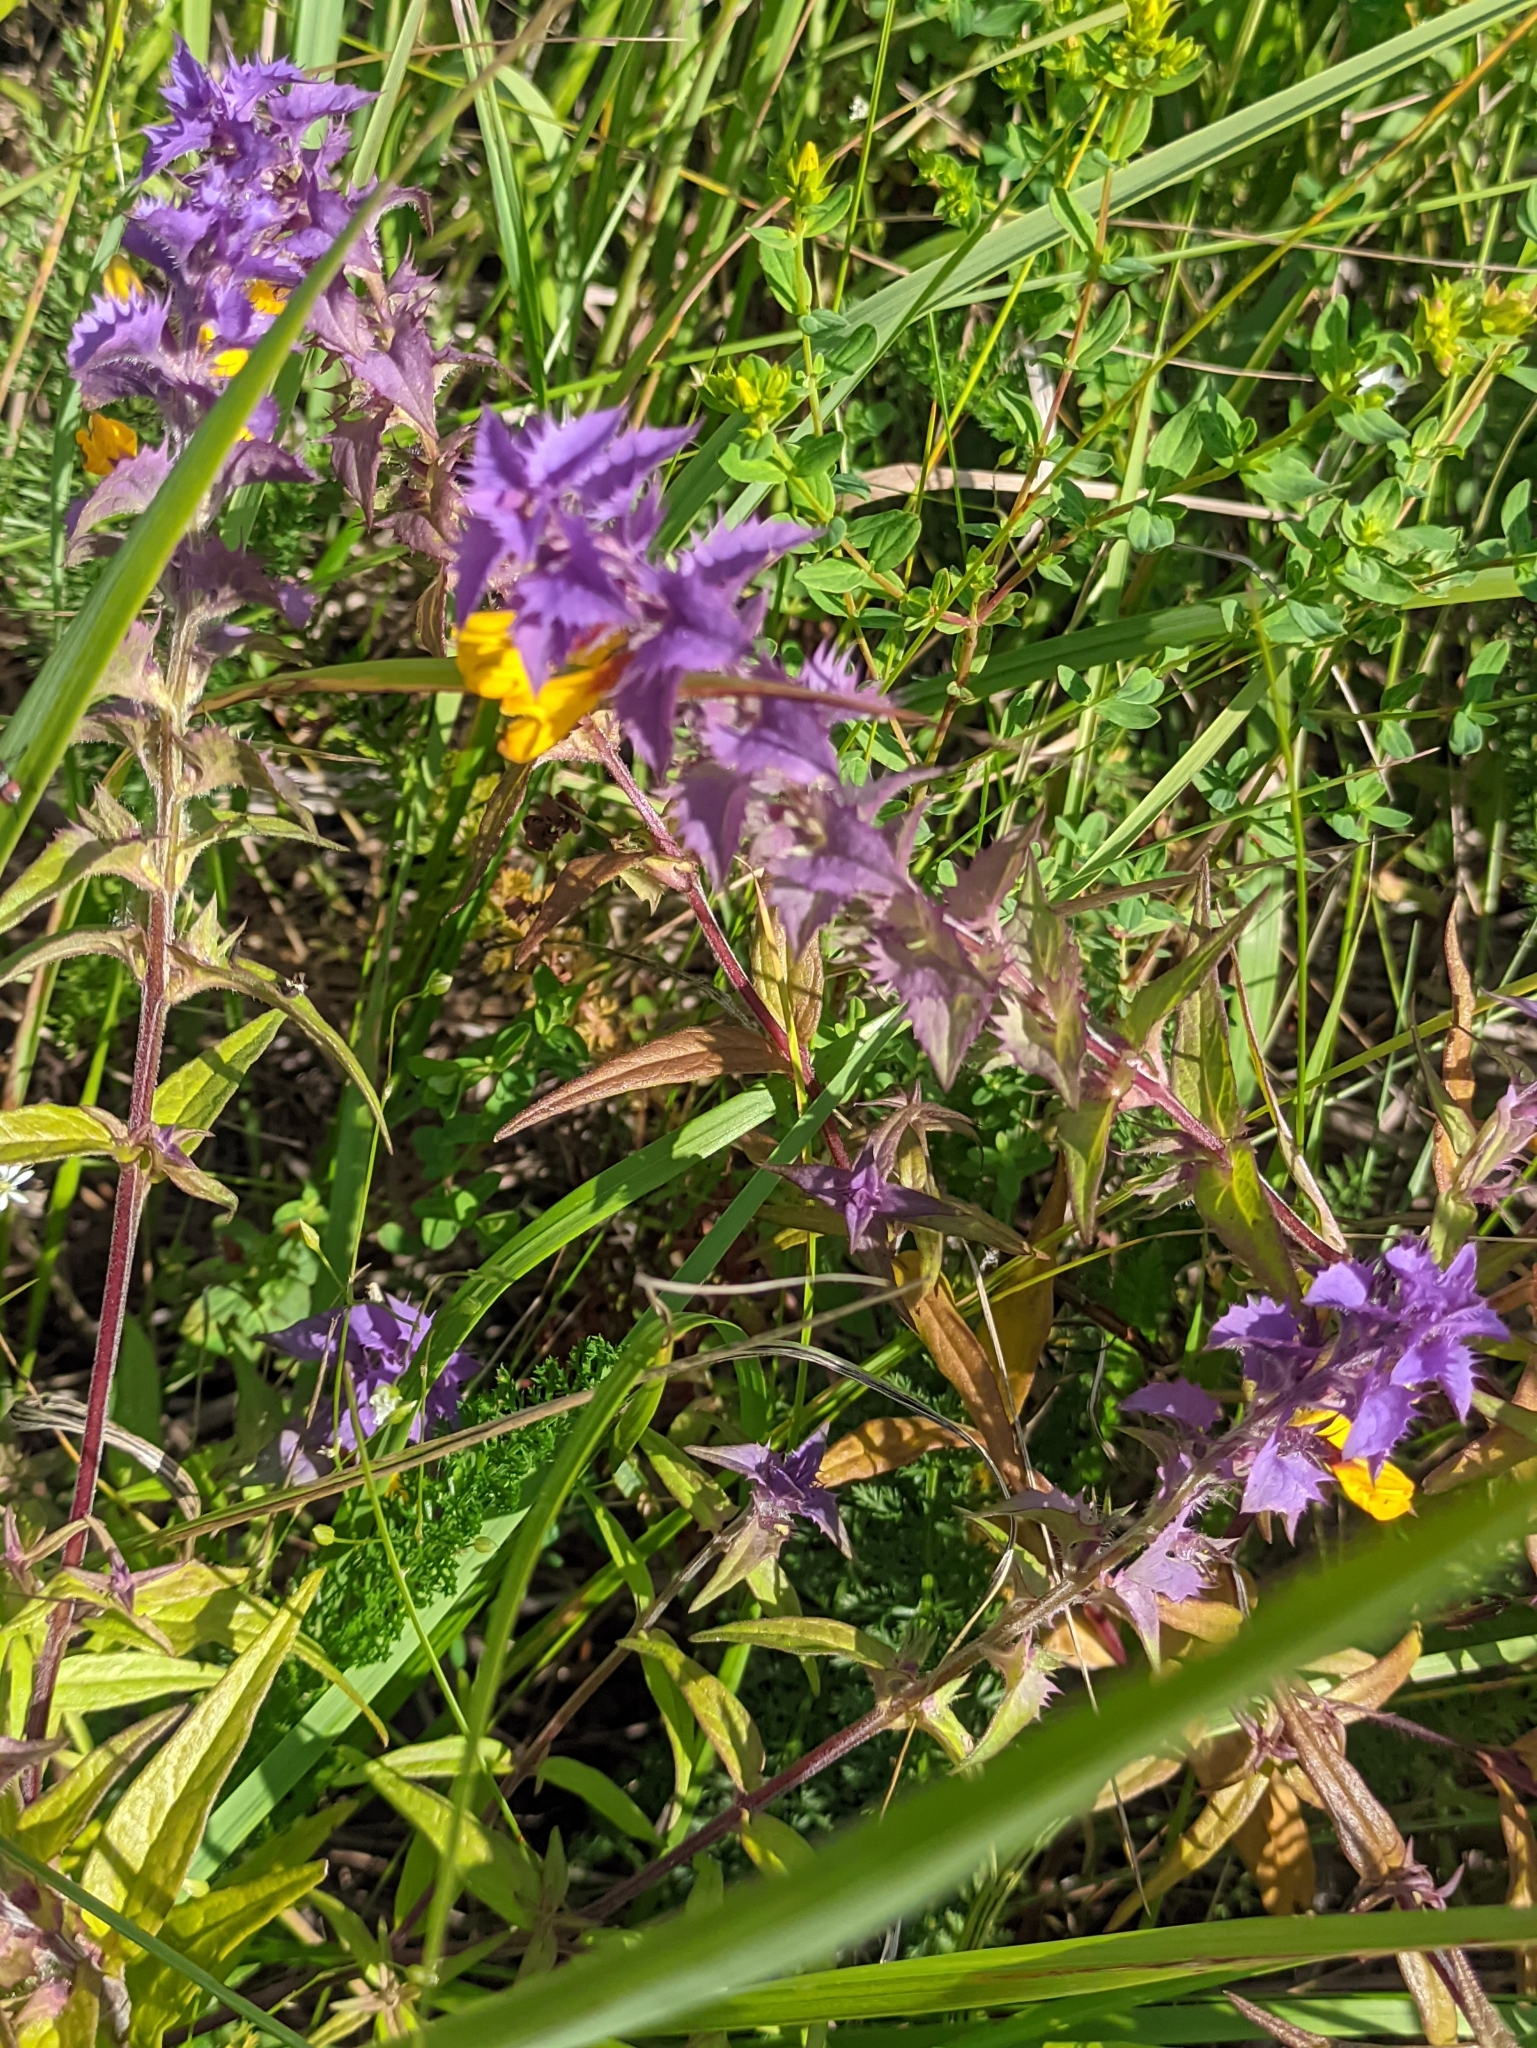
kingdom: Plantae
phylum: Tracheophyta
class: Magnoliopsida
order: Lamiales
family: Orobanchaceae
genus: Melampyrum
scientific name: Melampyrum nemorosum
